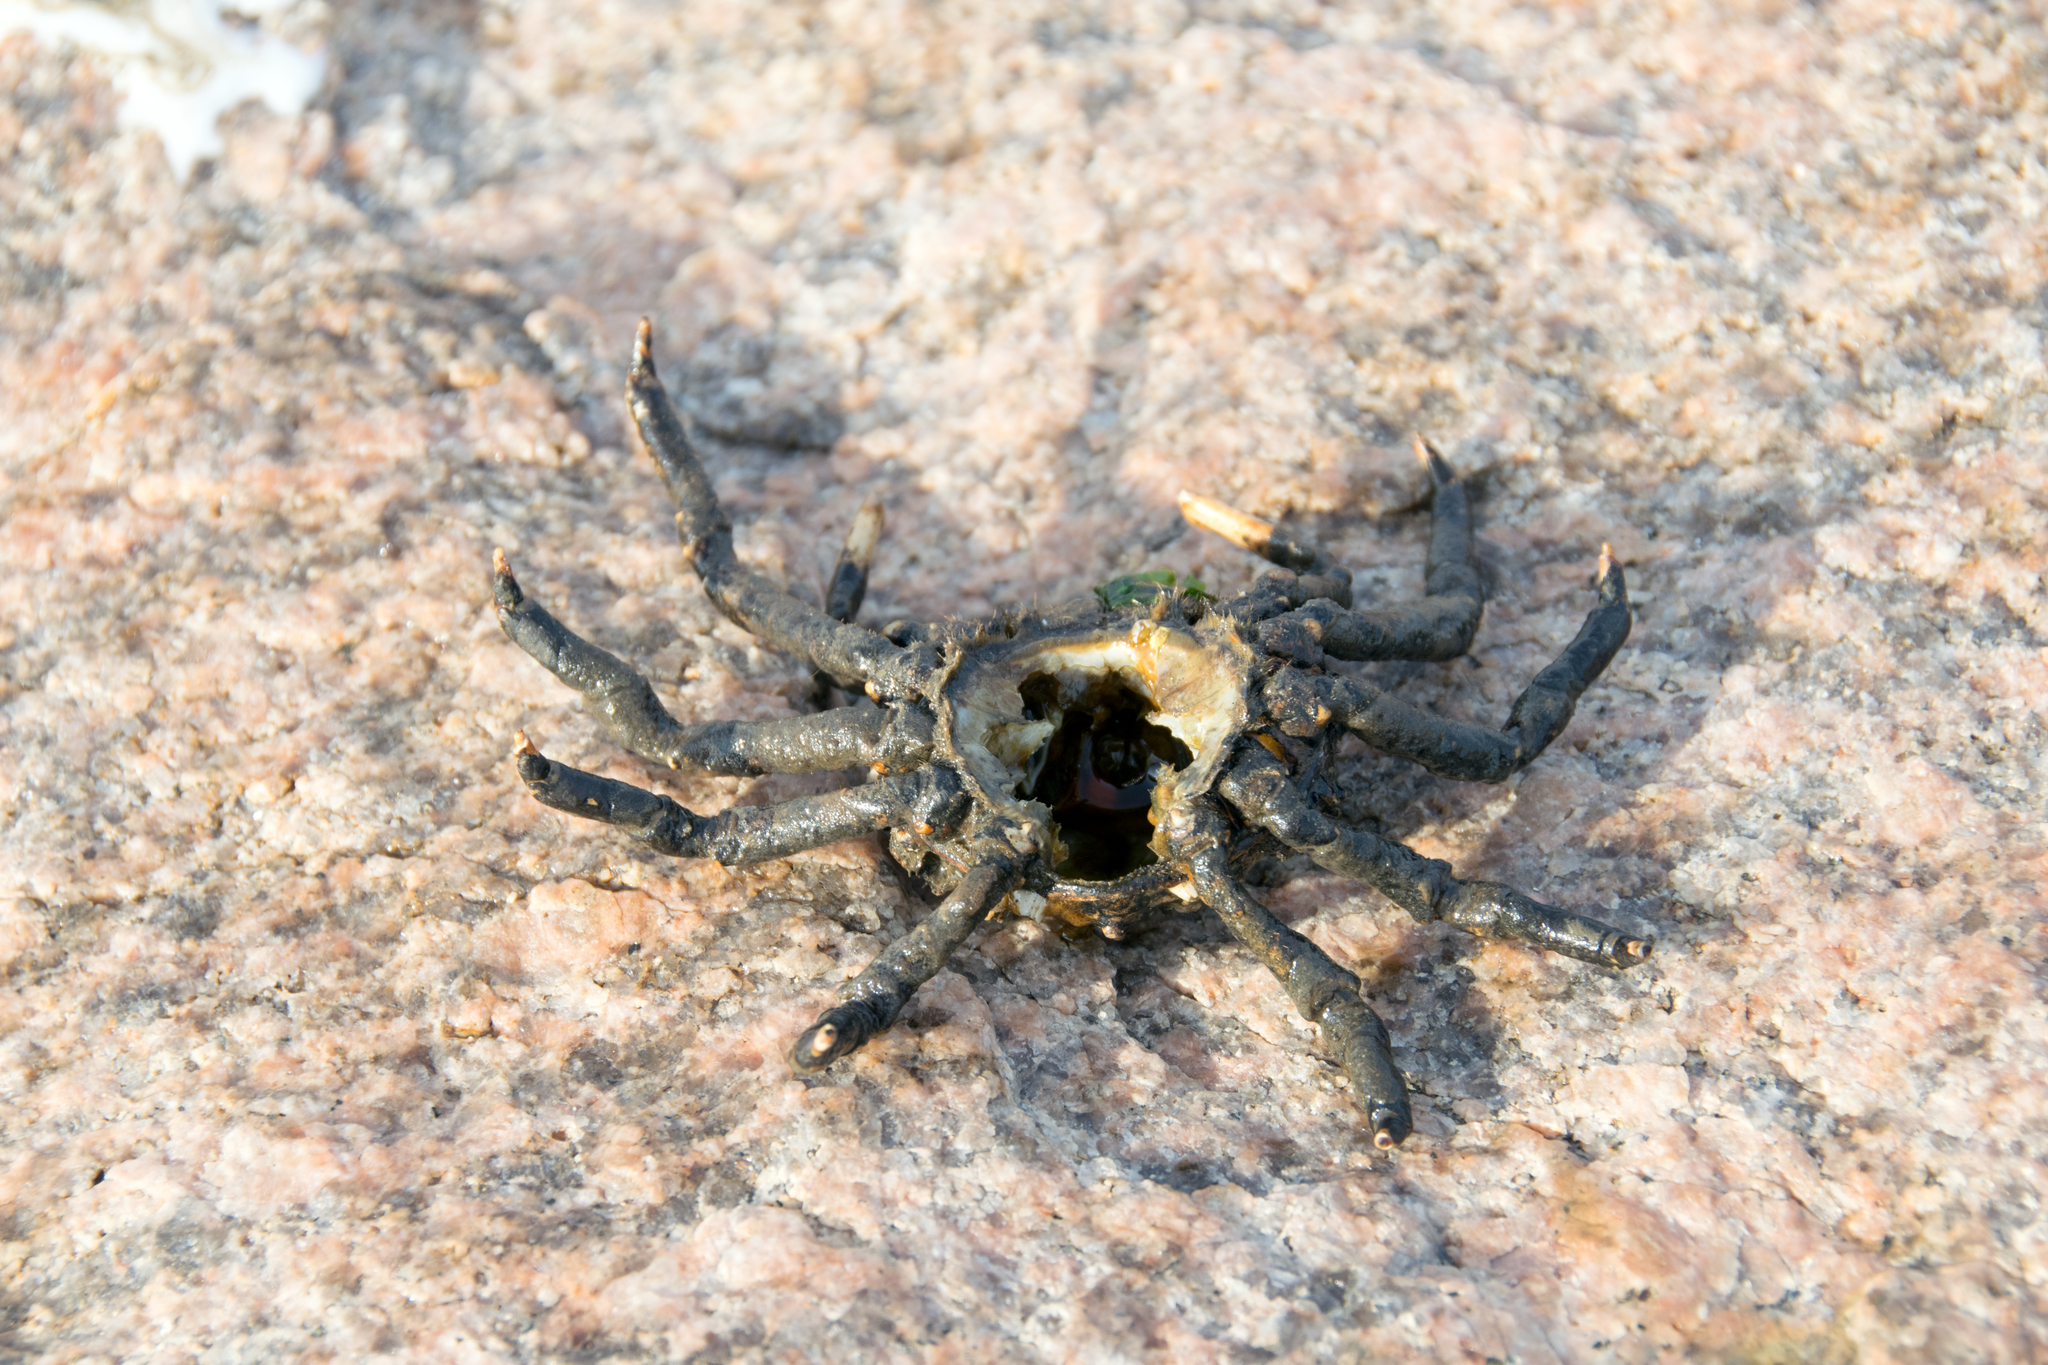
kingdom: Animalia
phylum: Arthropoda
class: Malacostraca
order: Decapoda
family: Epialtidae
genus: Libinia
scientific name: Libinia emarginata
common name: Common spider crab
